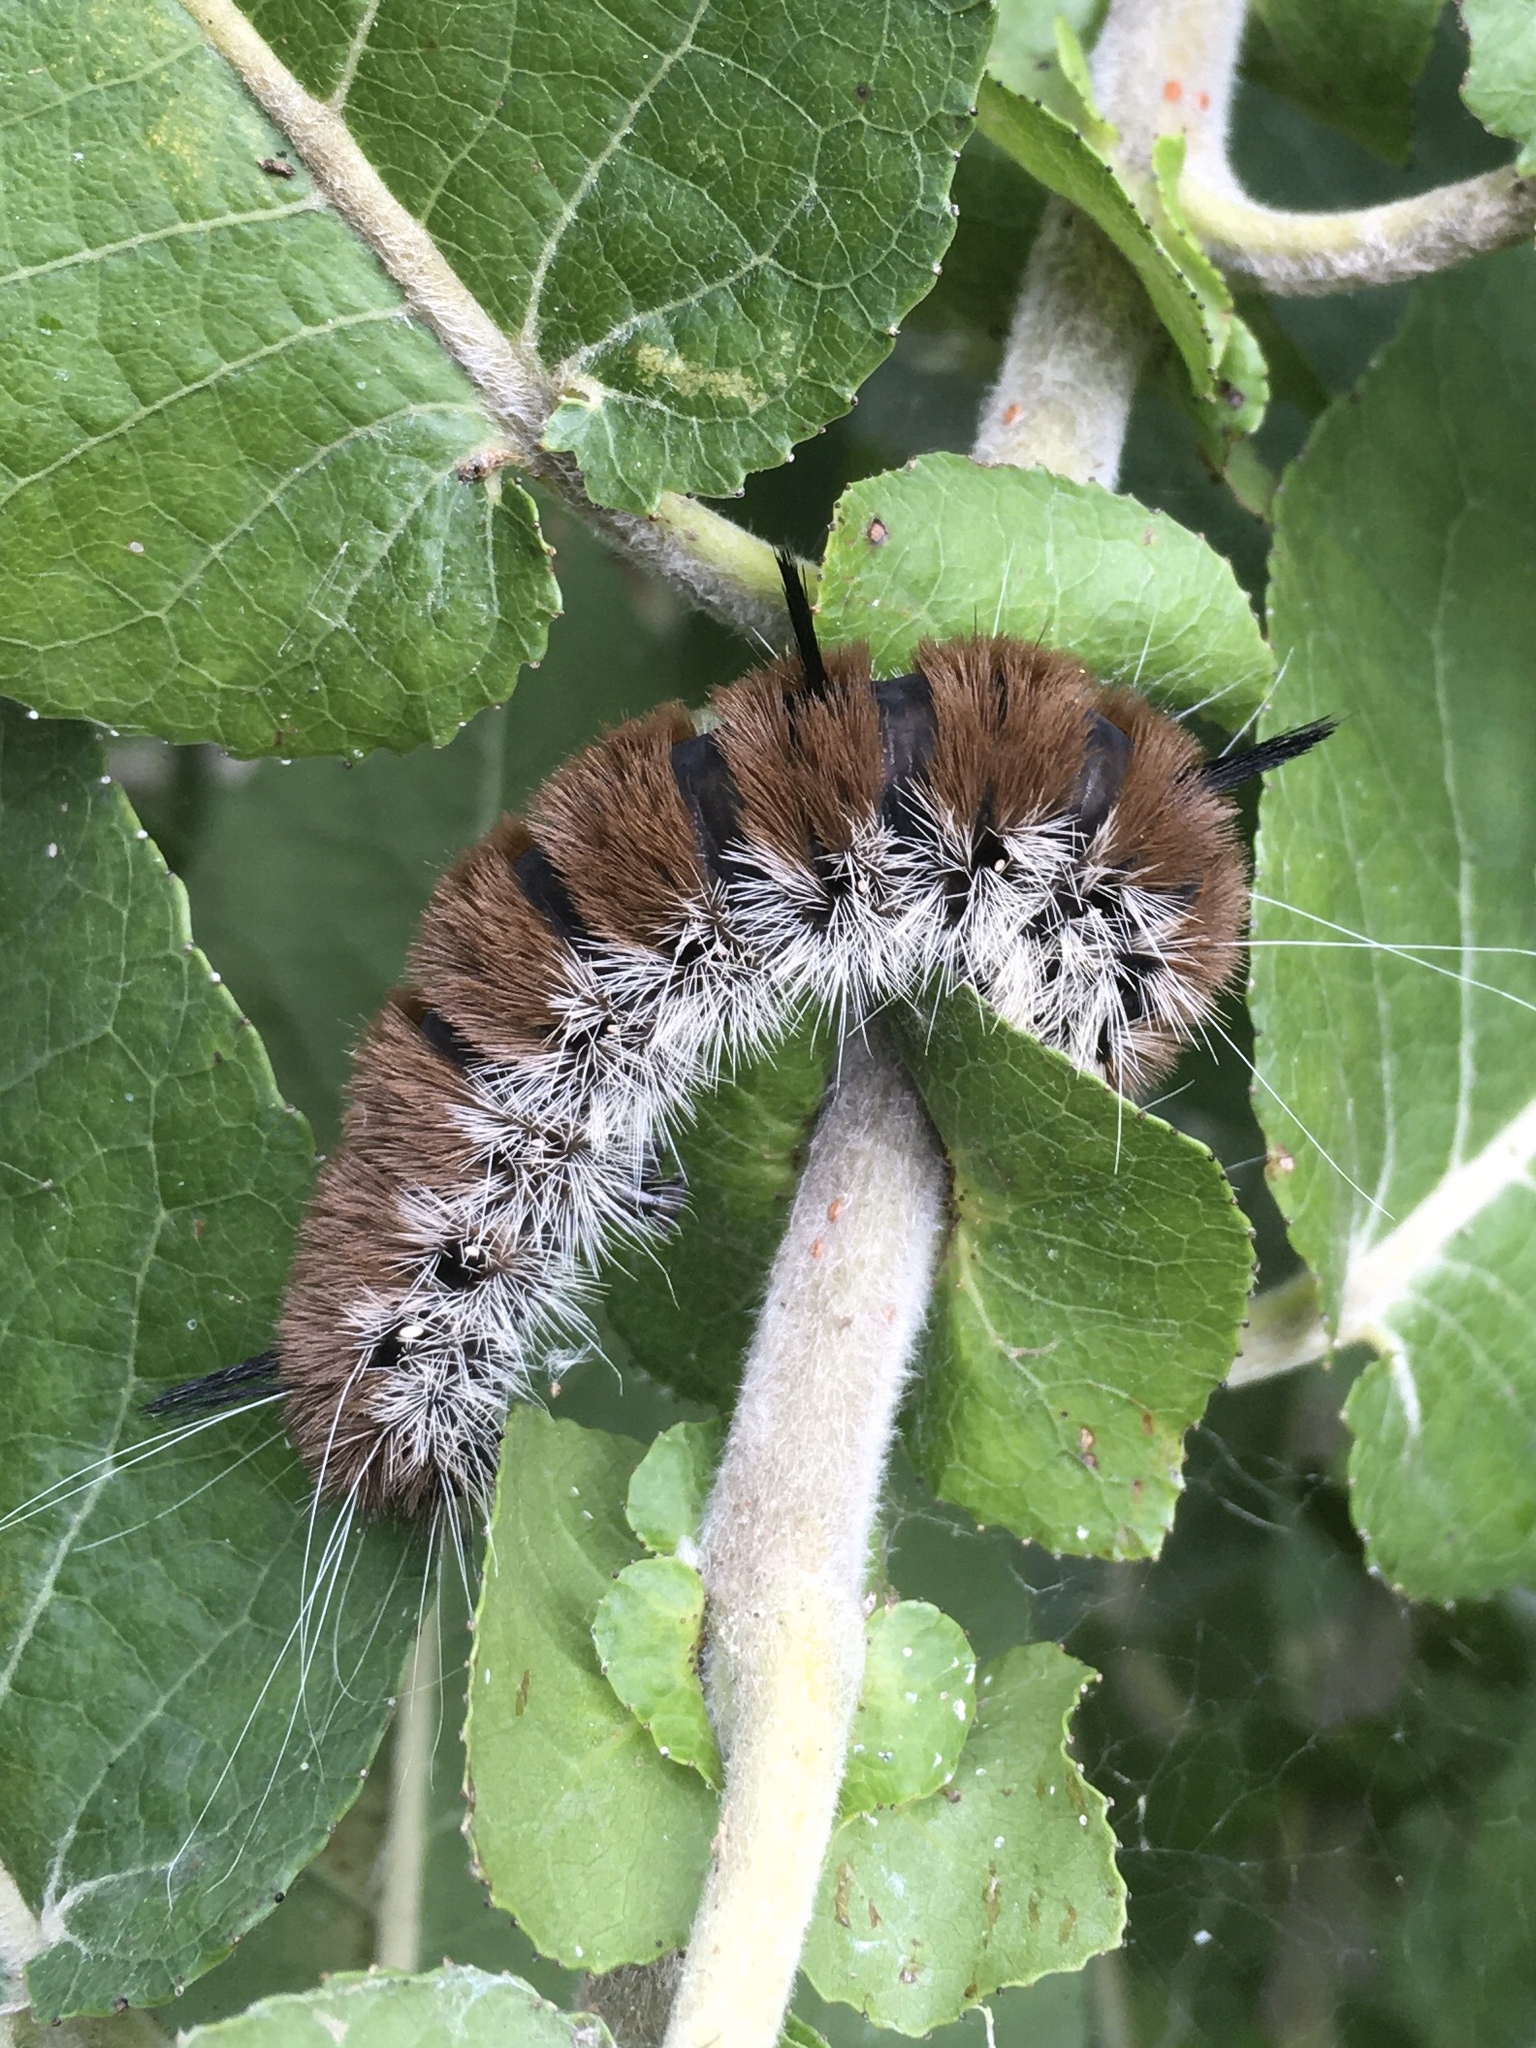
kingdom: Animalia
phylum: Arthropoda
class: Insecta
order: Lepidoptera
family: Noctuidae
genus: Acronicta
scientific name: Acronicta insita
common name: Large gray dagger
